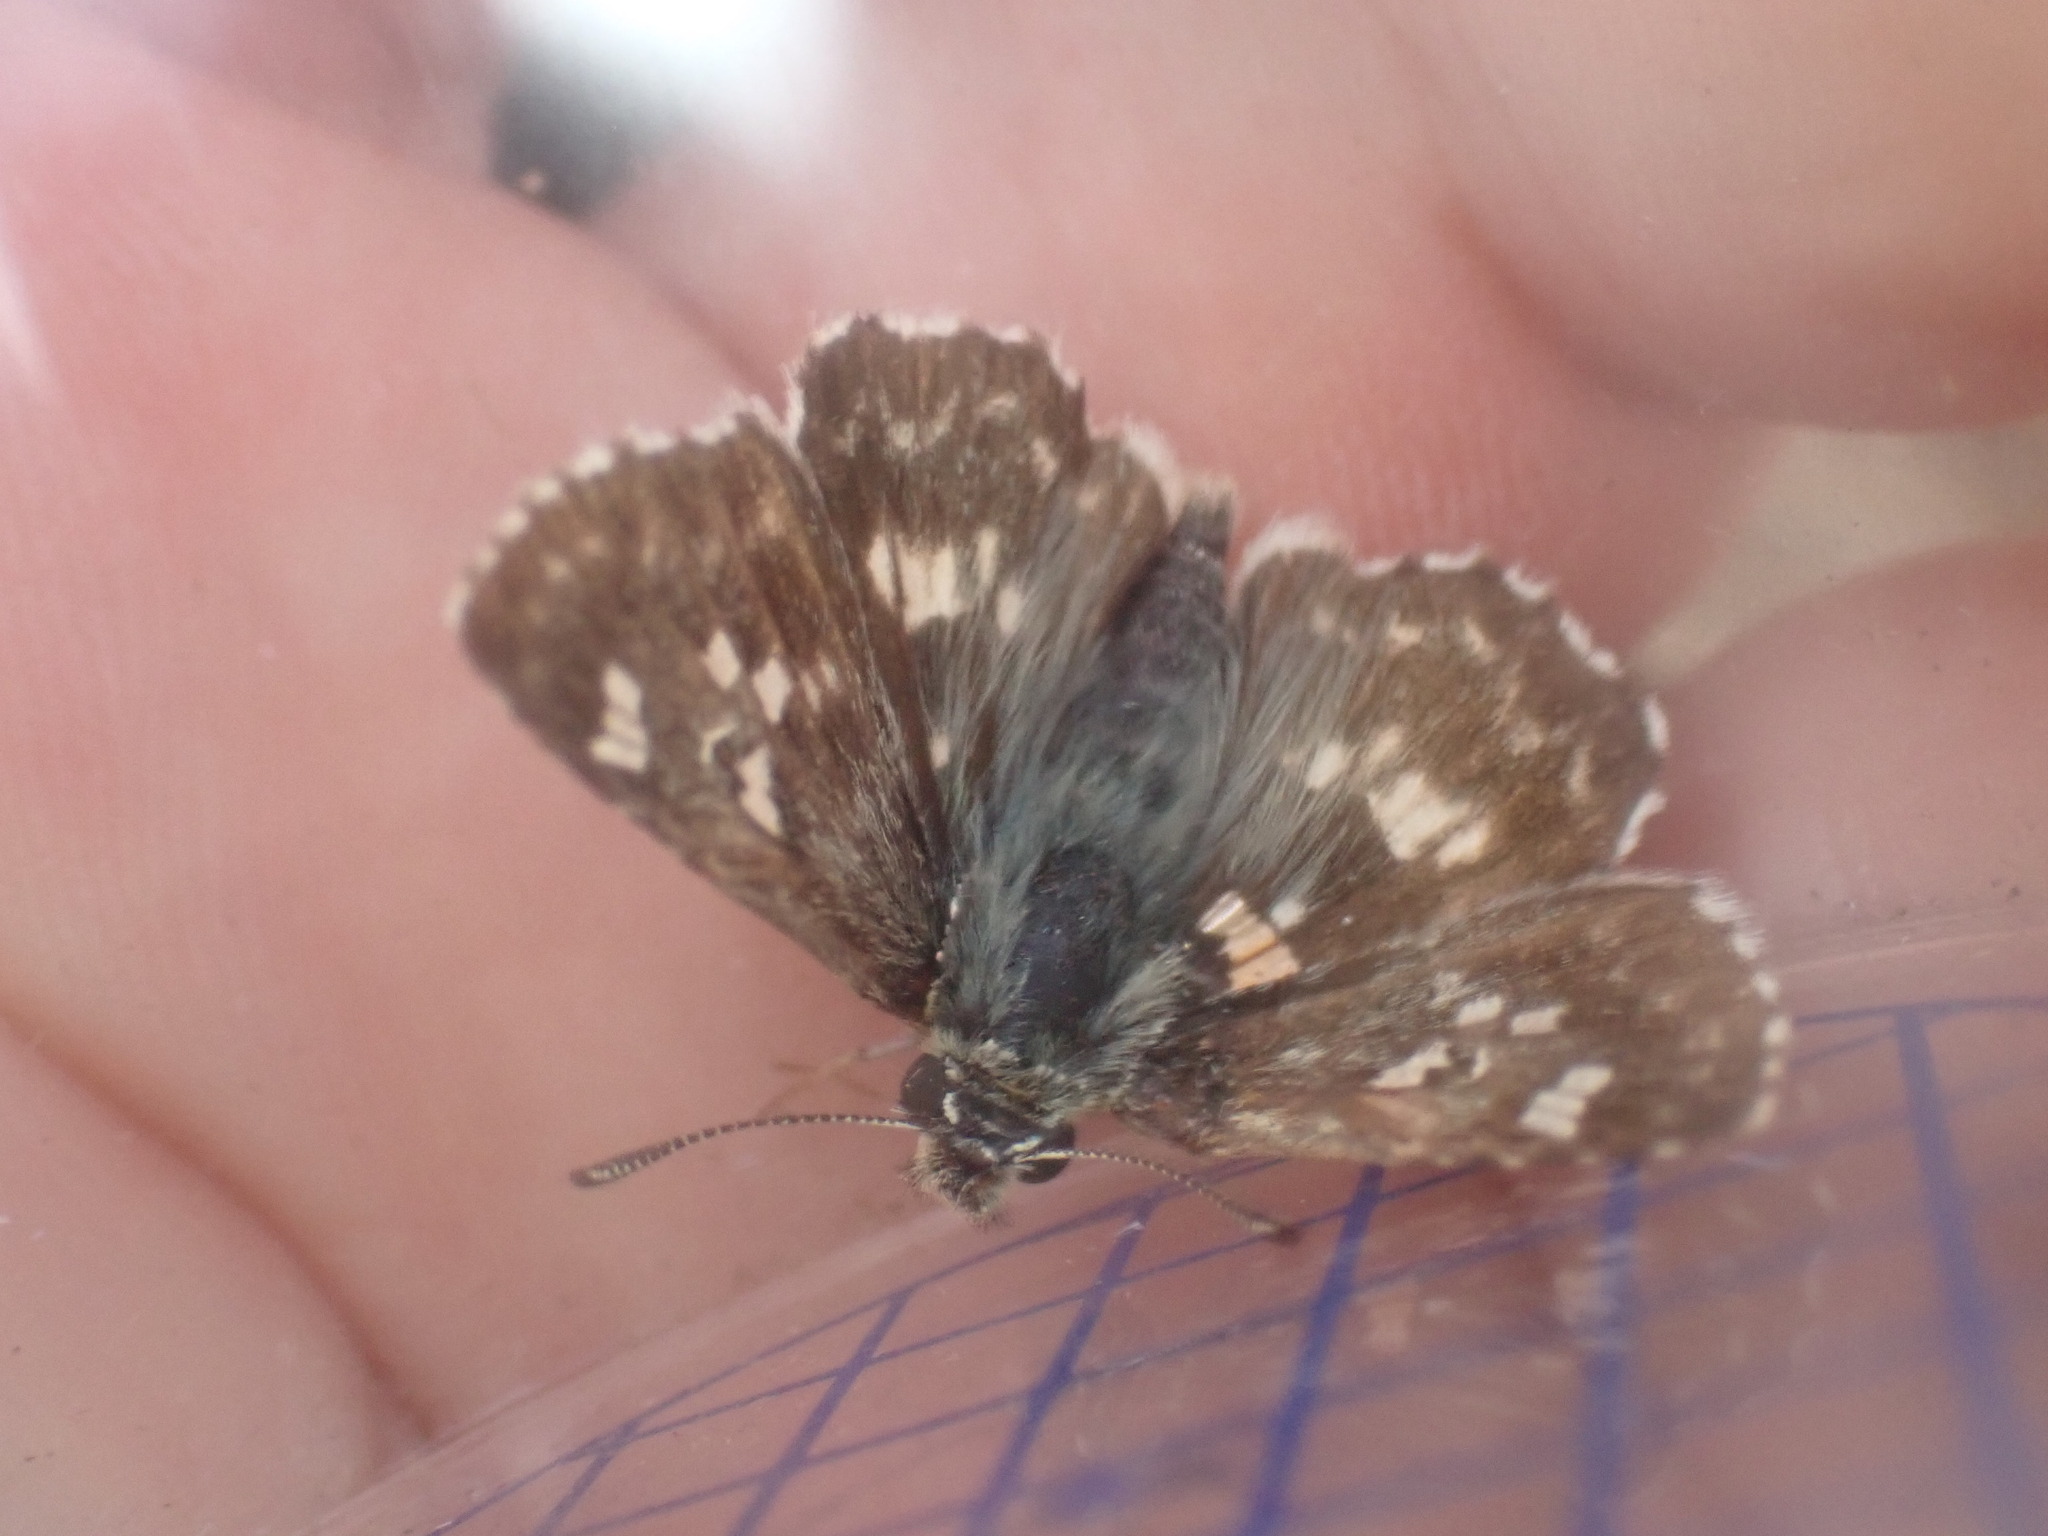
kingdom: Animalia
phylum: Arthropoda
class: Insecta
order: Lepidoptera
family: Hesperiidae
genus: Syrichtus
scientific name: Syrichtus Muschampia proto
